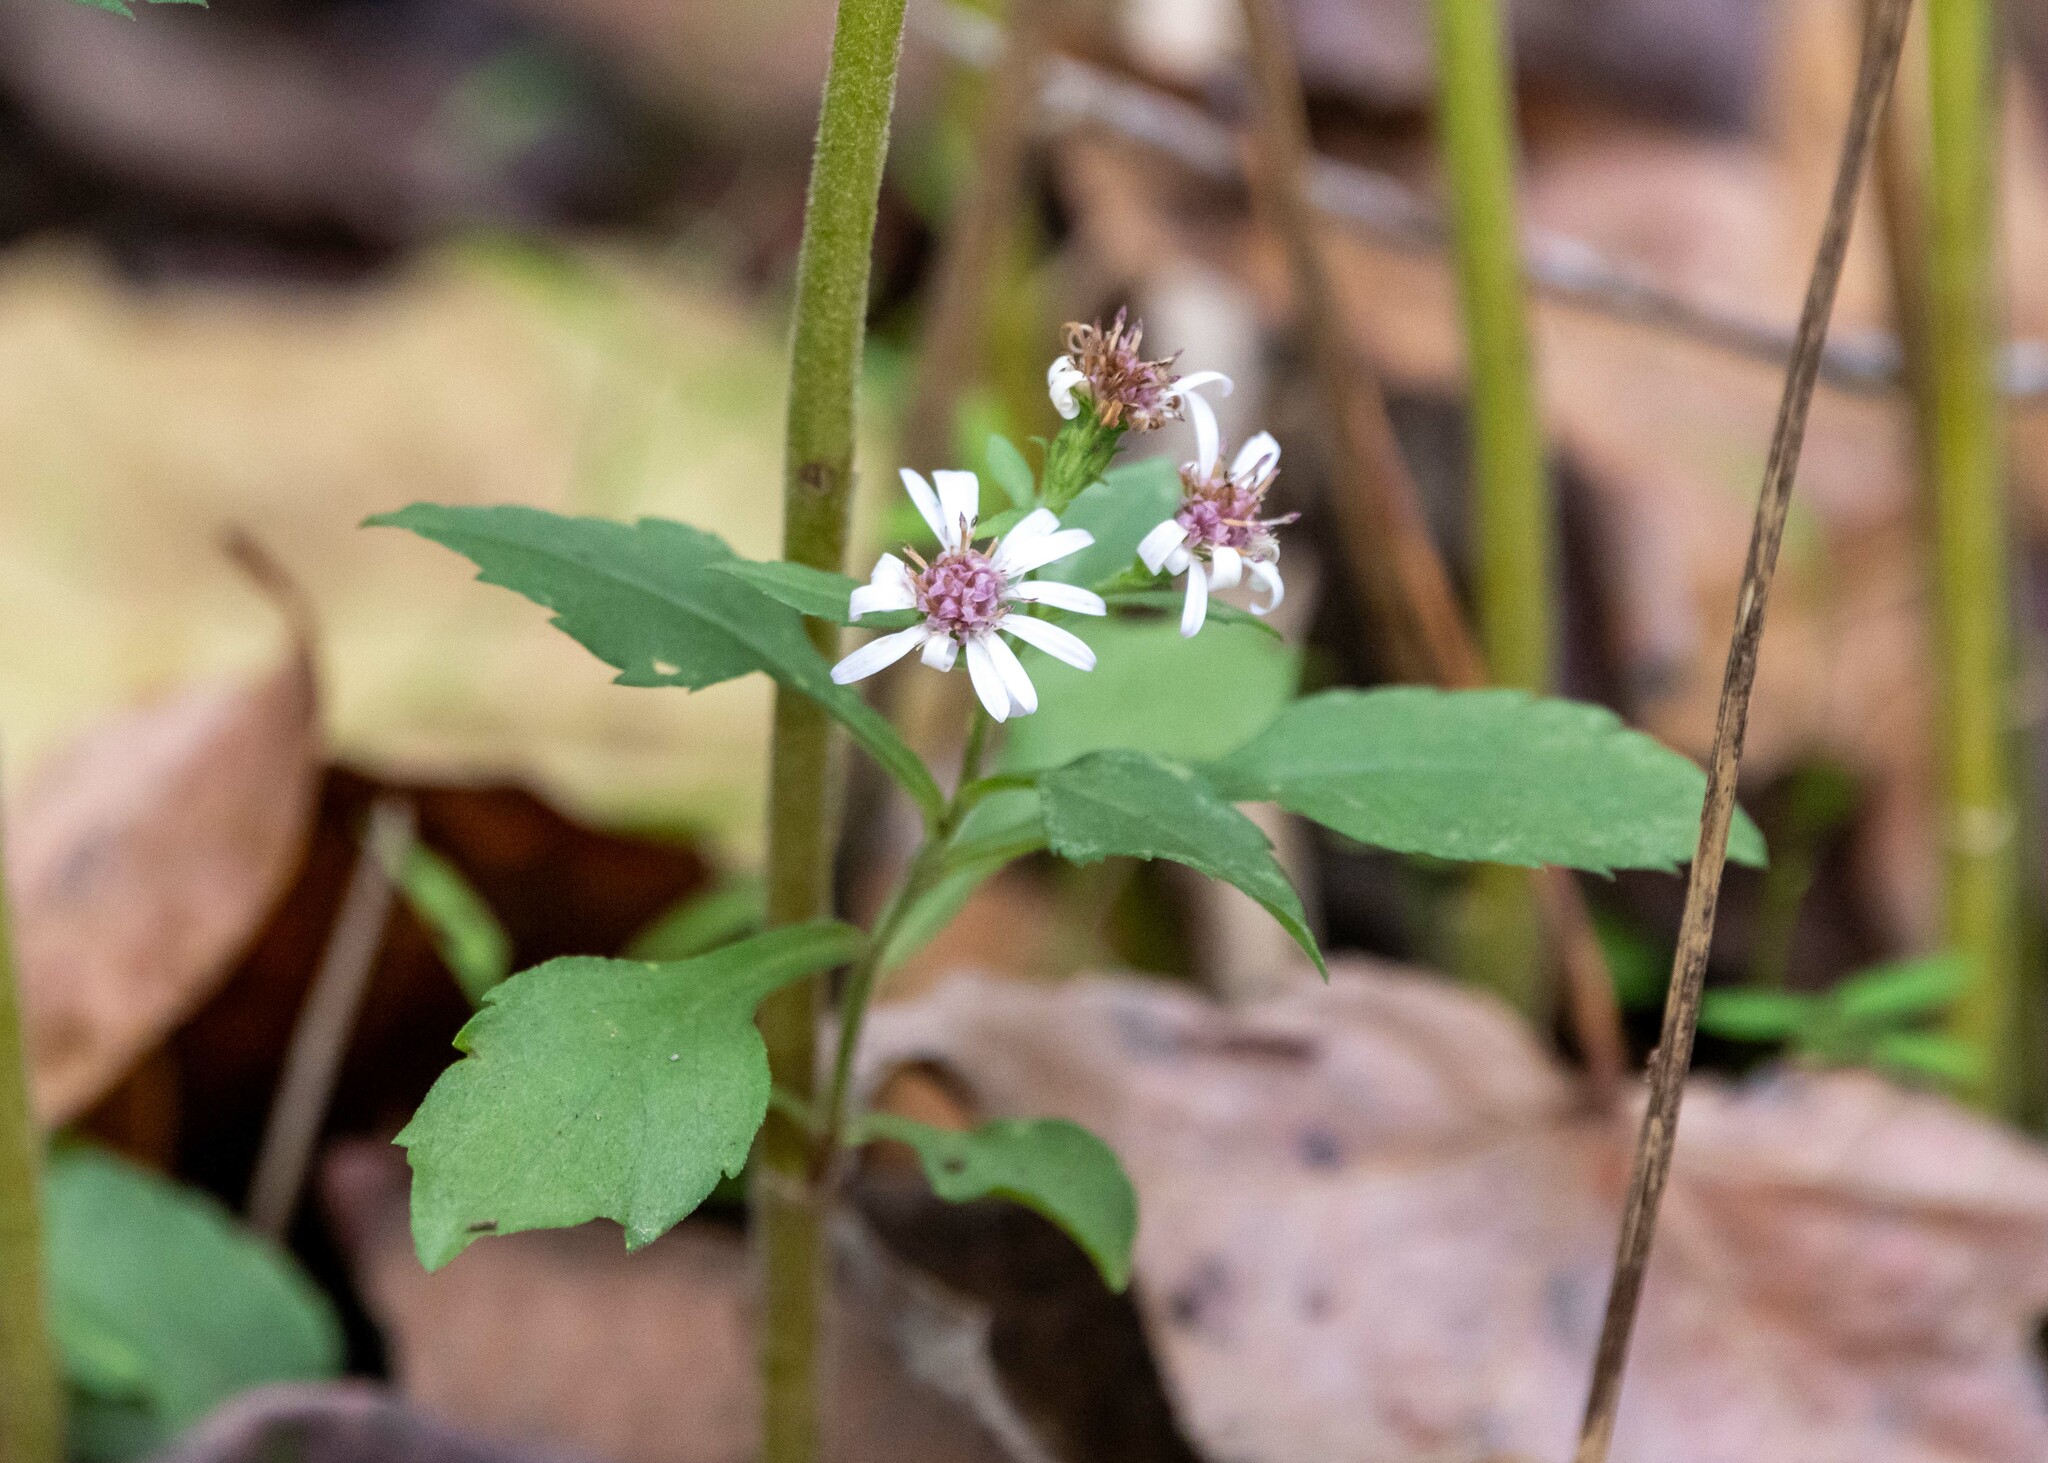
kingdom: Plantae
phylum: Tracheophyta
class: Magnoliopsida
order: Asterales
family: Asteraceae
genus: Symphyotrichum
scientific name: Symphyotrichum lateriflorum
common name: Calico aster
